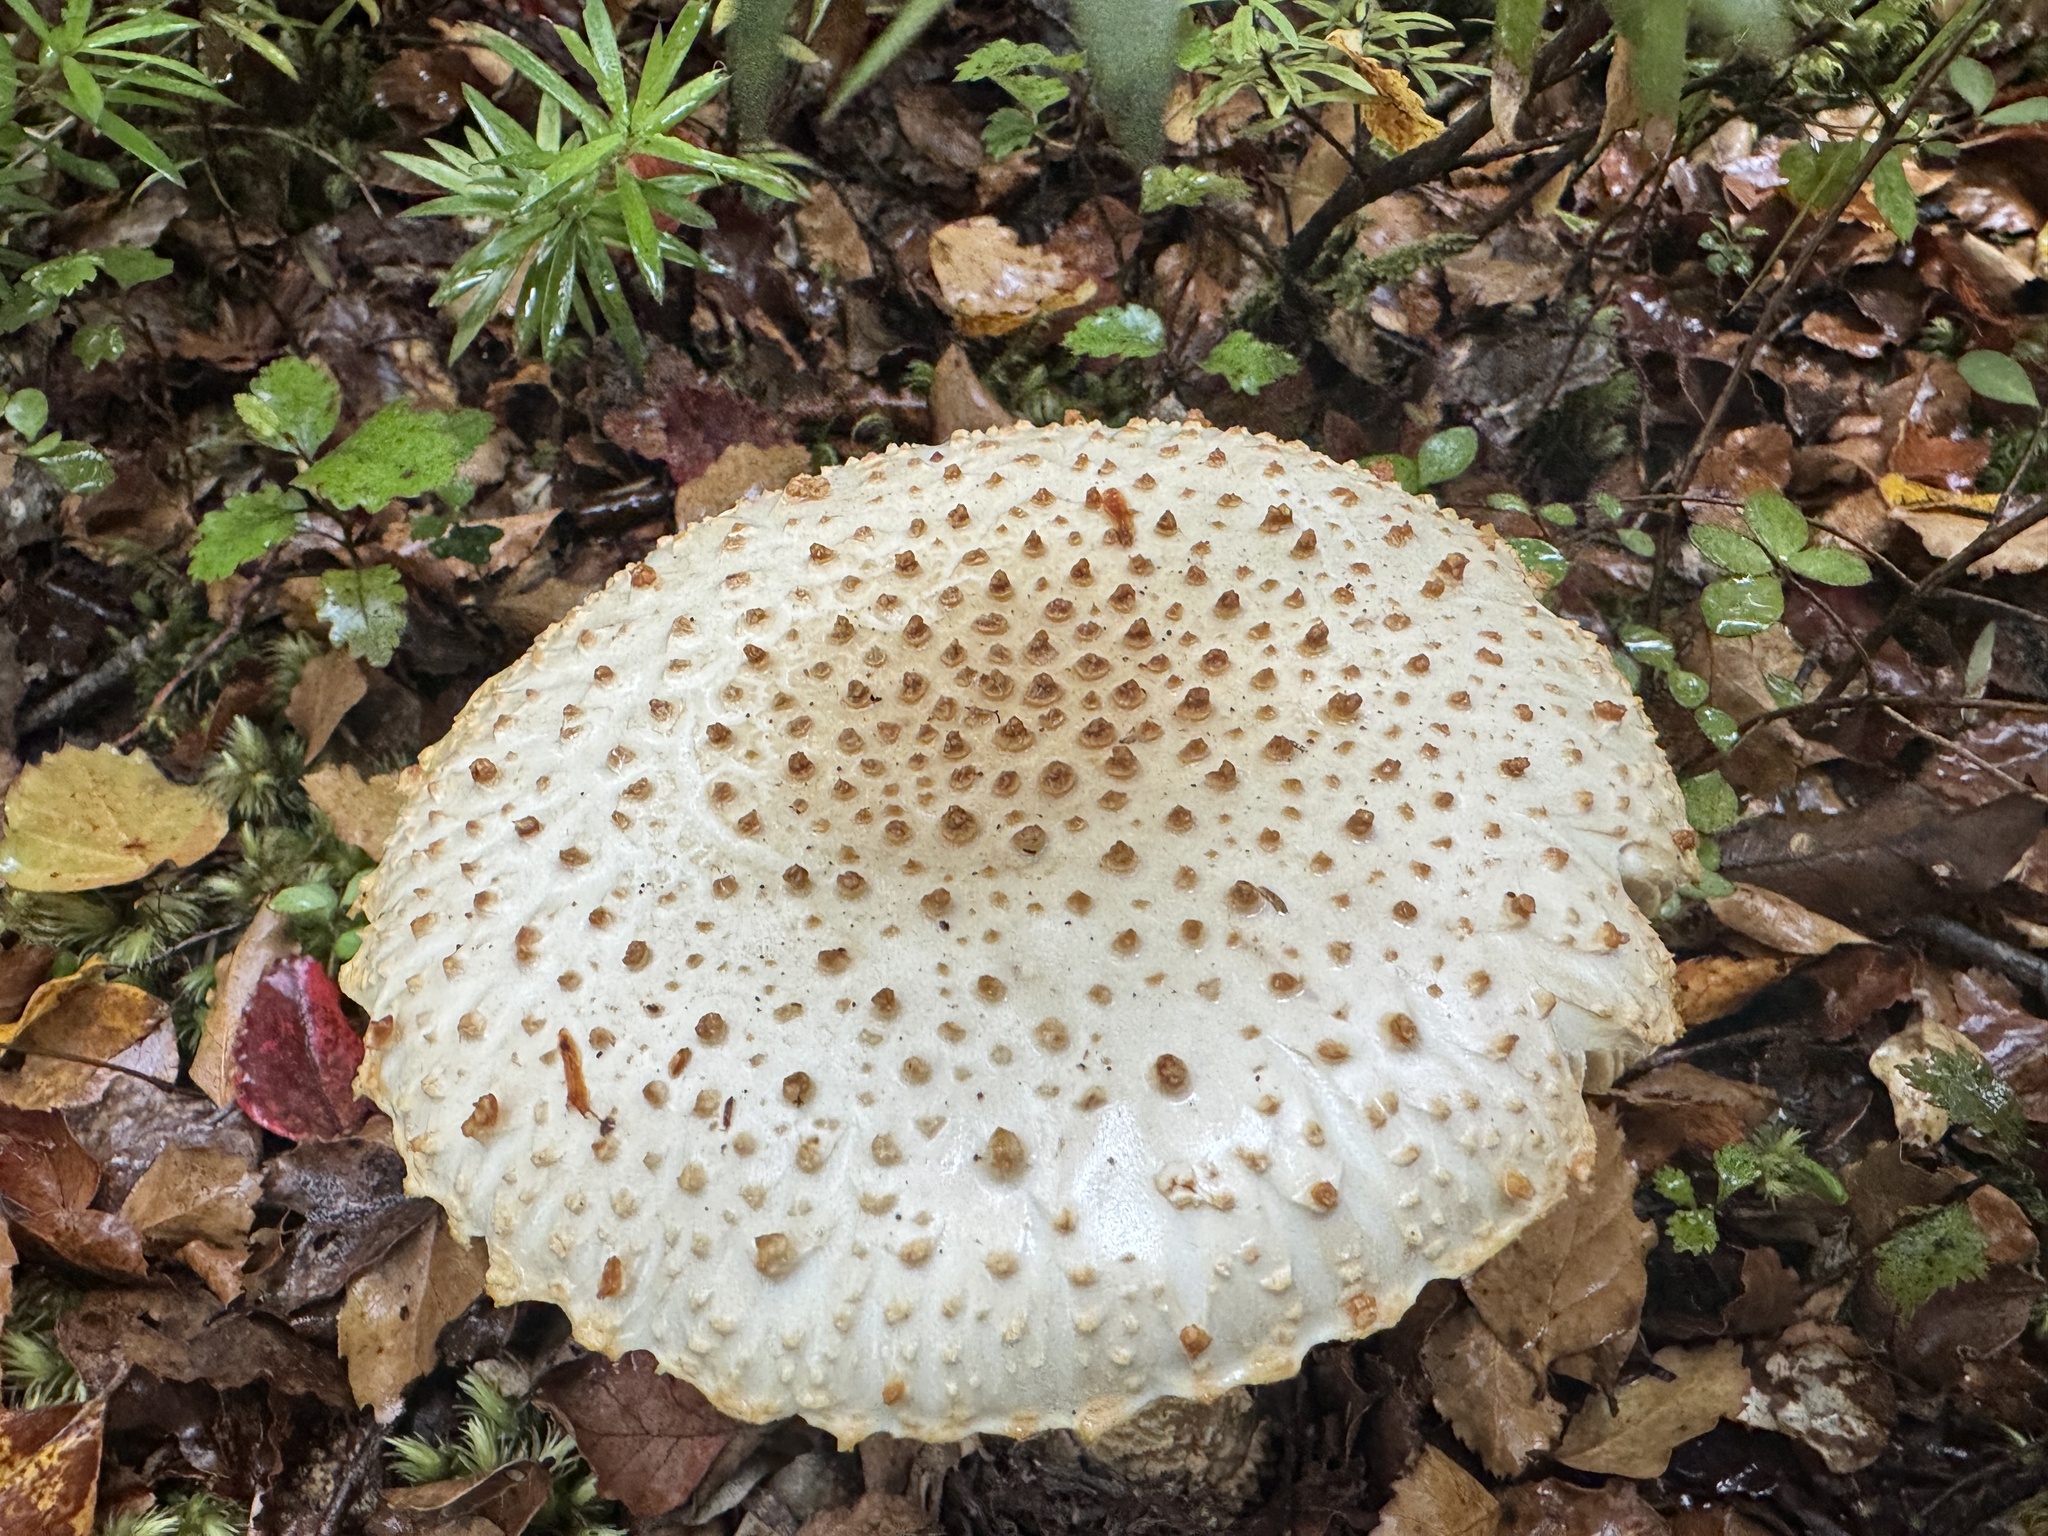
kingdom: Fungi
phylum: Basidiomycota
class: Agaricomycetes
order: Agaricales
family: Amanitaceae
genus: Amanita
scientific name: Amanita pareparina
